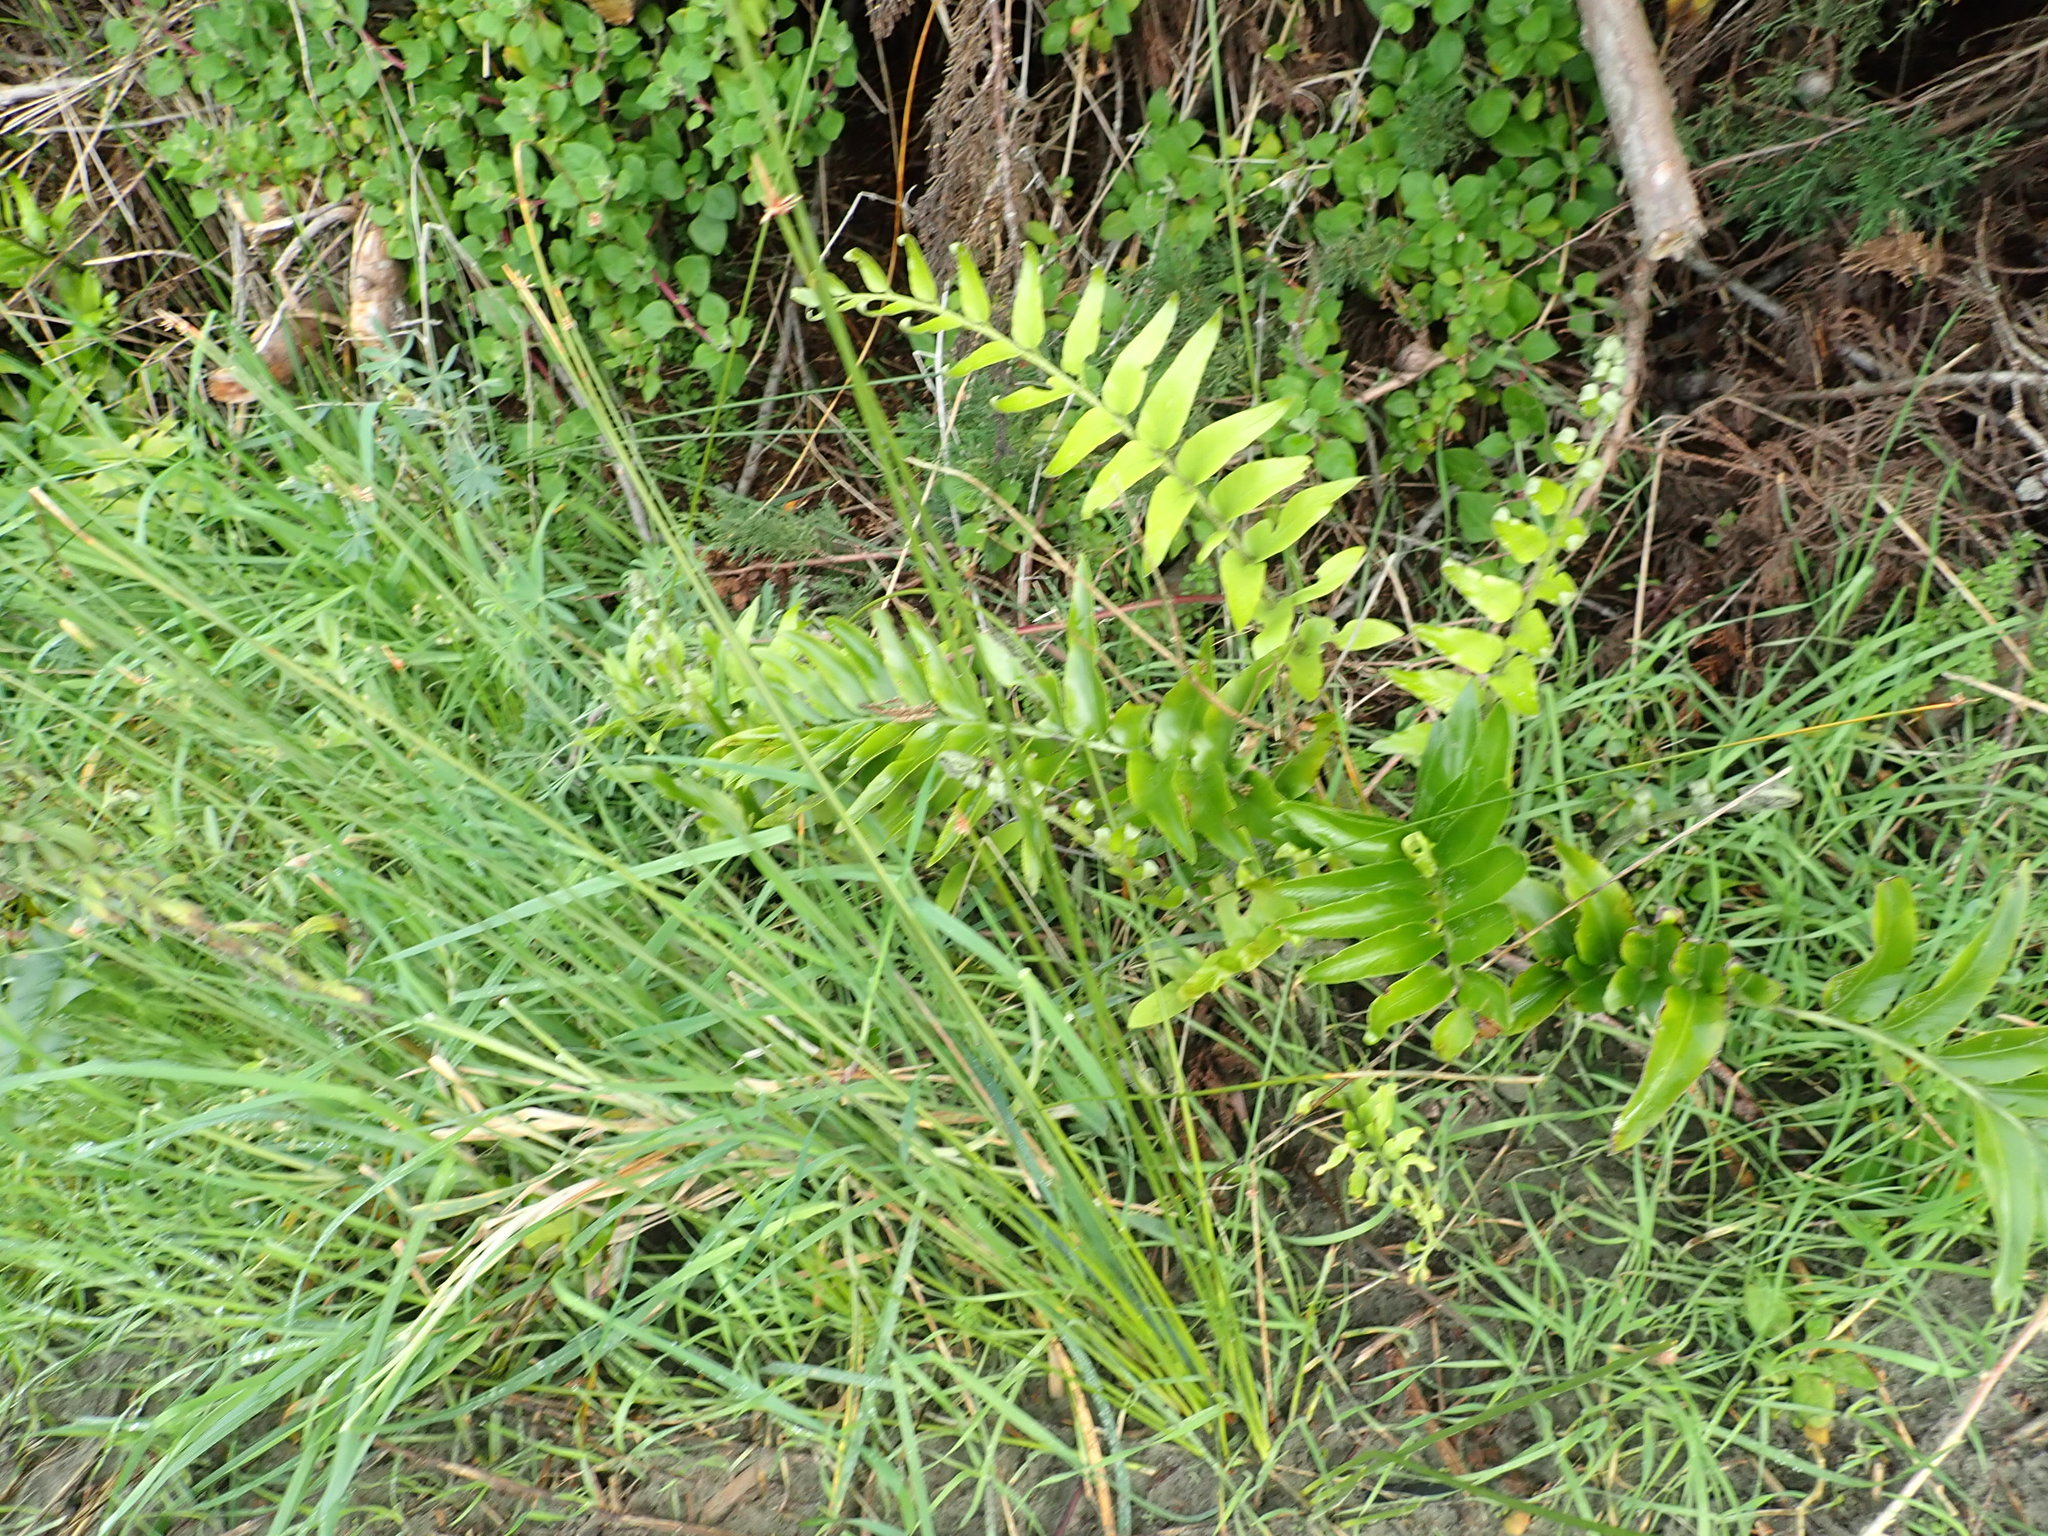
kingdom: Plantae
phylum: Tracheophyta
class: Polypodiopsida
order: Polypodiales
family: Aspleniaceae
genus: Asplenium
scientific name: Asplenium oblongifolium
